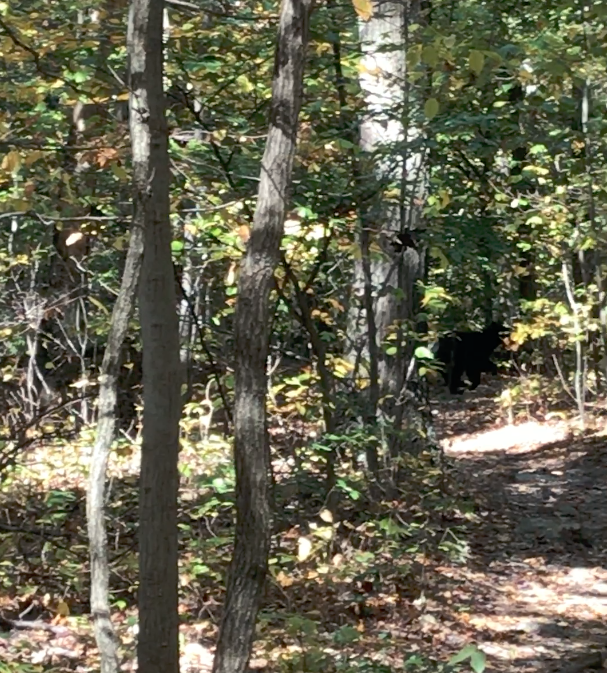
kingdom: Animalia
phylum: Chordata
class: Mammalia
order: Carnivora
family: Ursidae
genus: Ursus
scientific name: Ursus americanus
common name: American black bear
